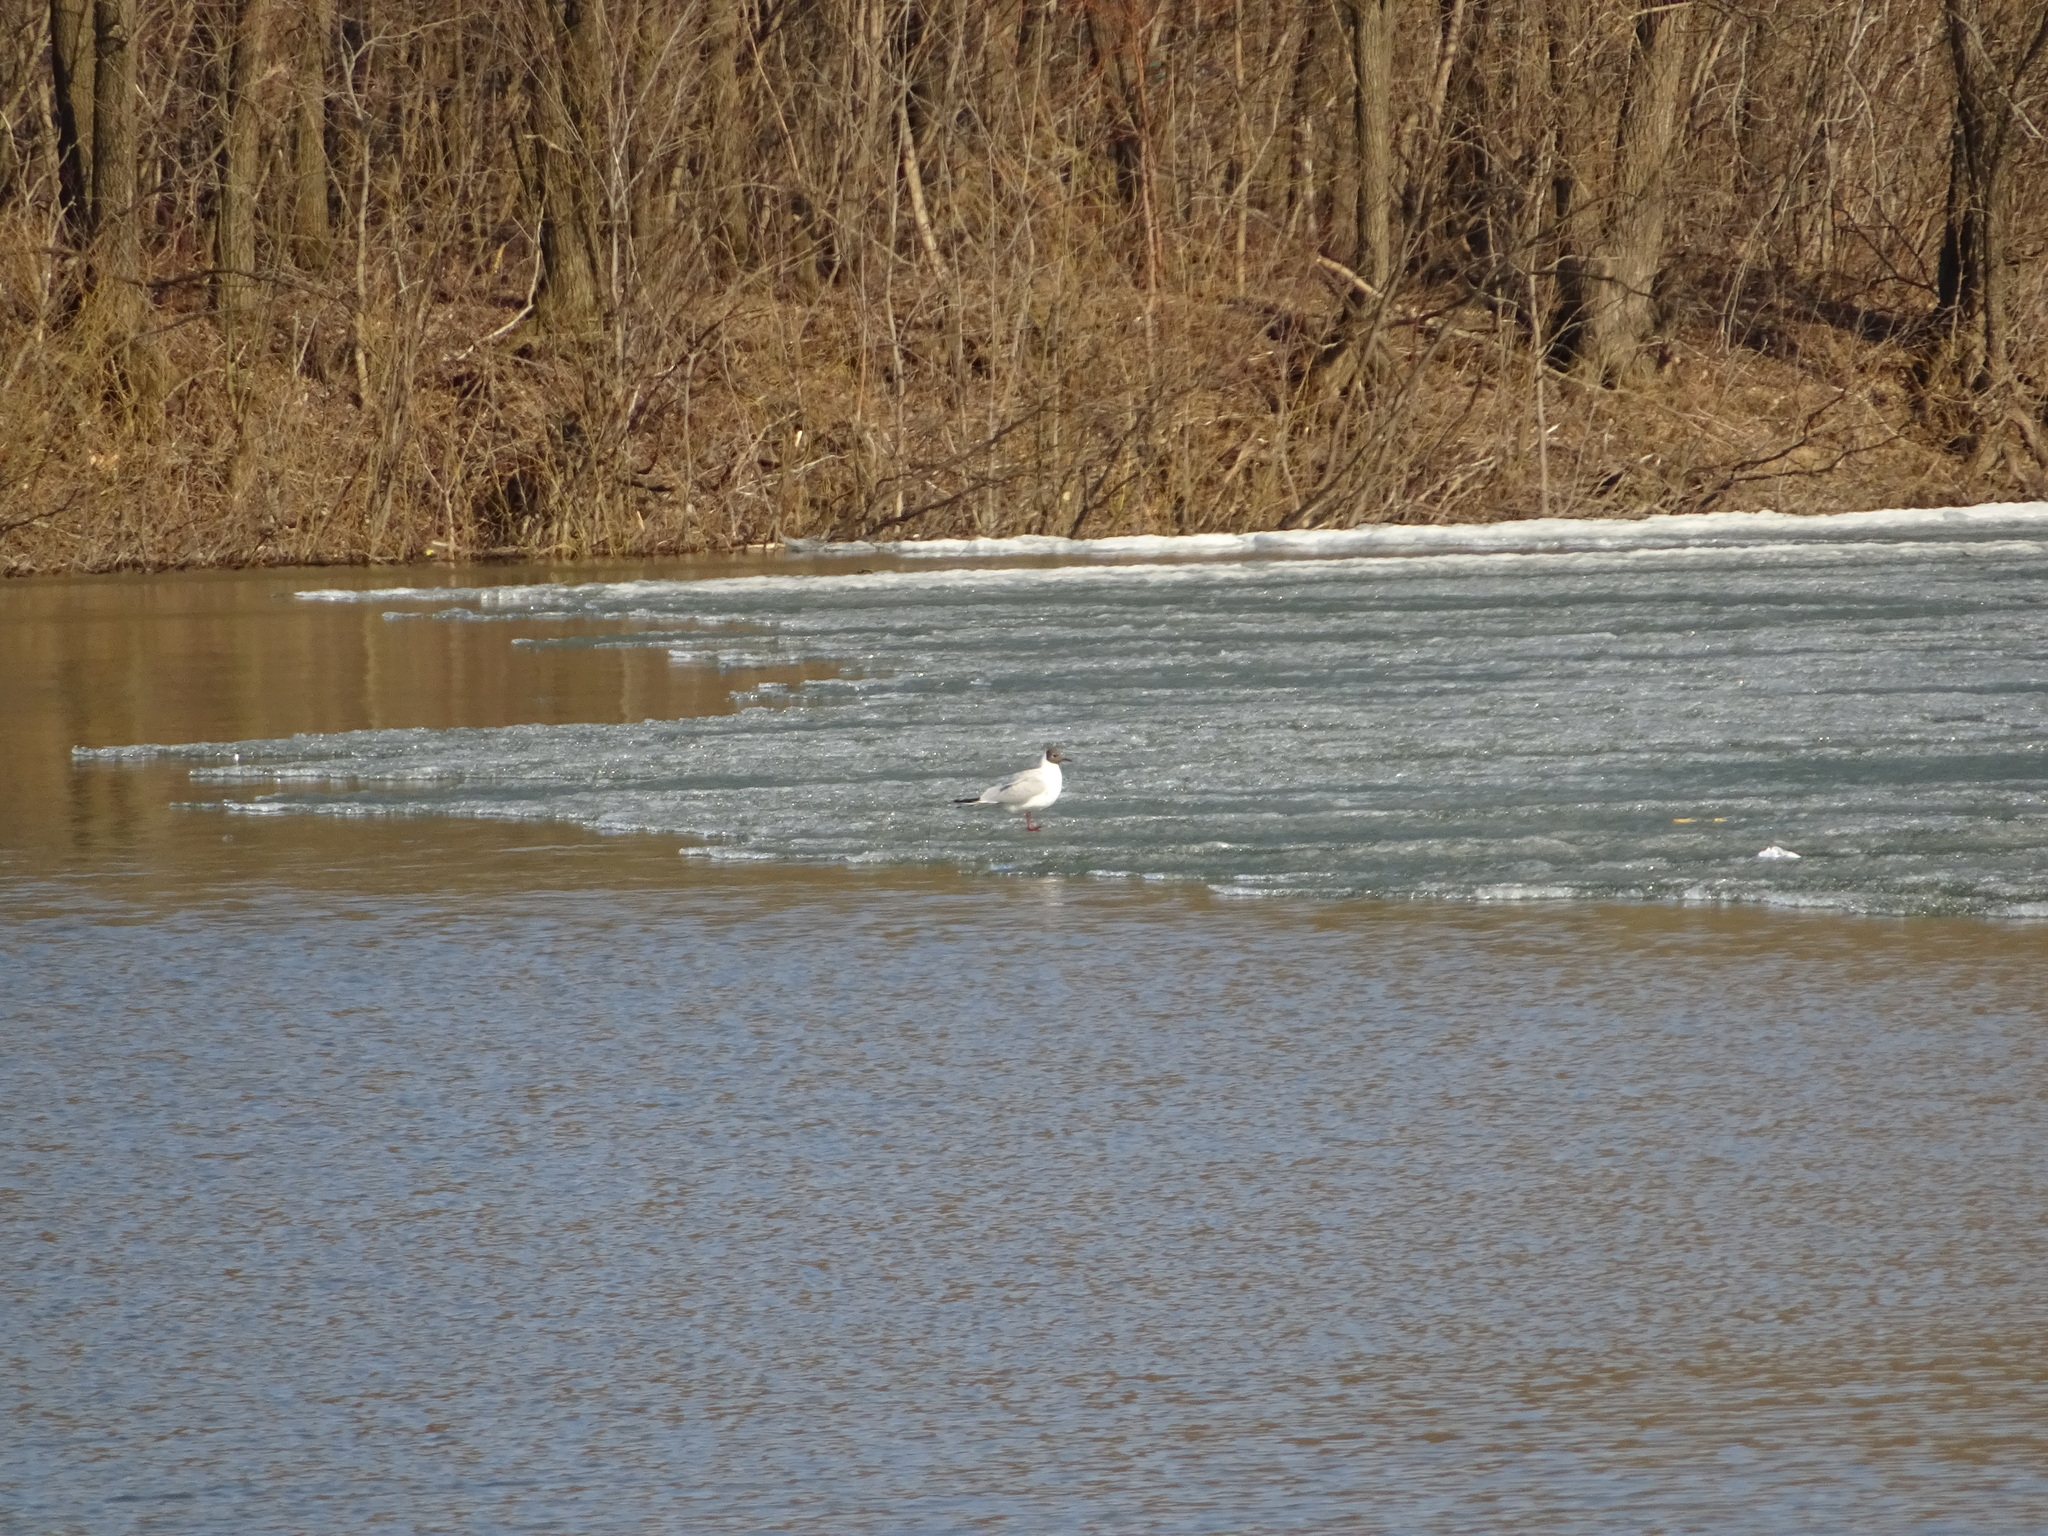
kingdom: Animalia
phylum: Chordata
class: Aves
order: Charadriiformes
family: Laridae
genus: Chroicocephalus
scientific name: Chroicocephalus ridibundus
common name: Black-headed gull
